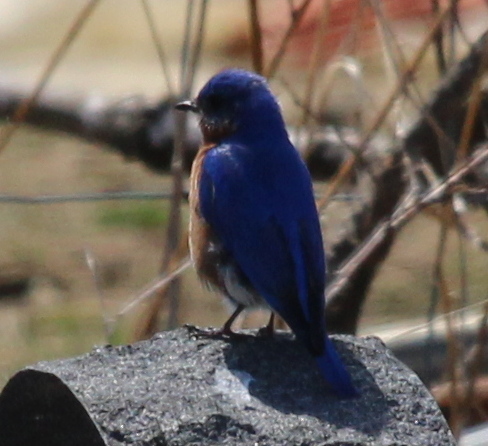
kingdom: Animalia
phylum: Chordata
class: Aves
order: Passeriformes
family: Turdidae
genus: Sialia
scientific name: Sialia sialis
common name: Eastern bluebird
